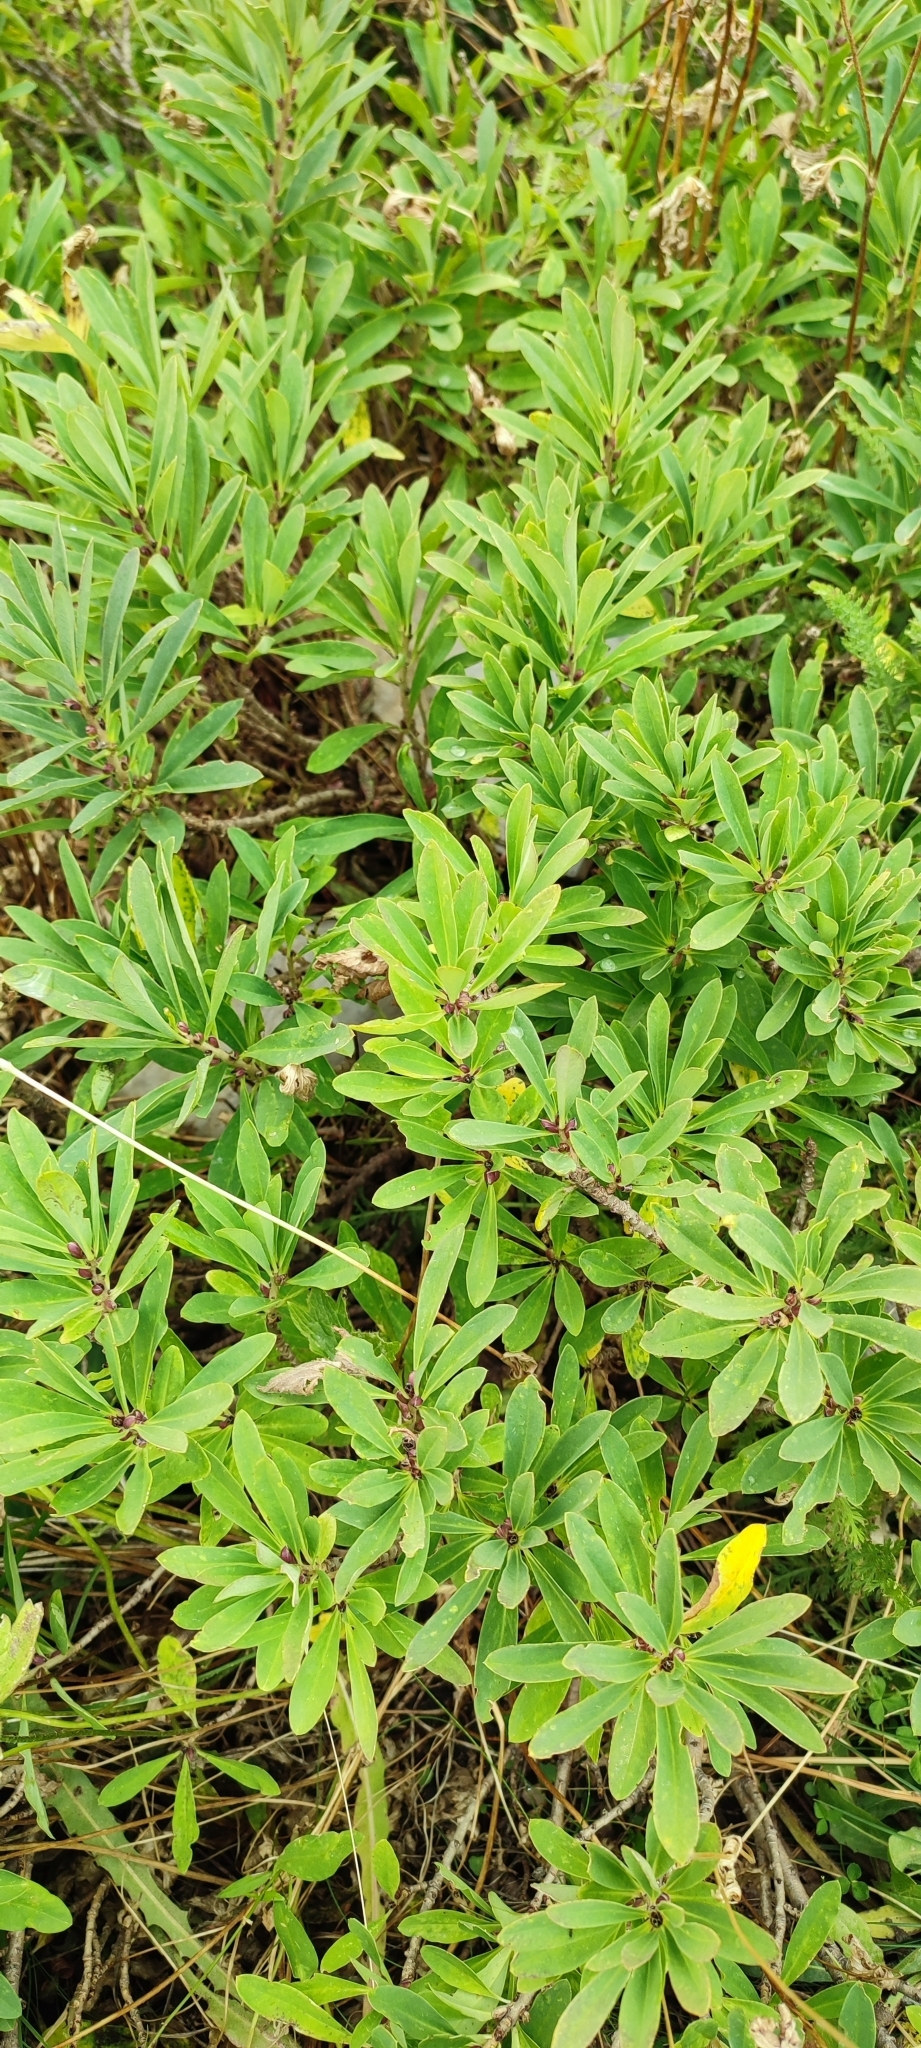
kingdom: Plantae
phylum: Tracheophyta
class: Magnoliopsida
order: Malvales
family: Thymelaeaceae
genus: Daphne
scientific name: Daphne mezereum
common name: Mezereon
